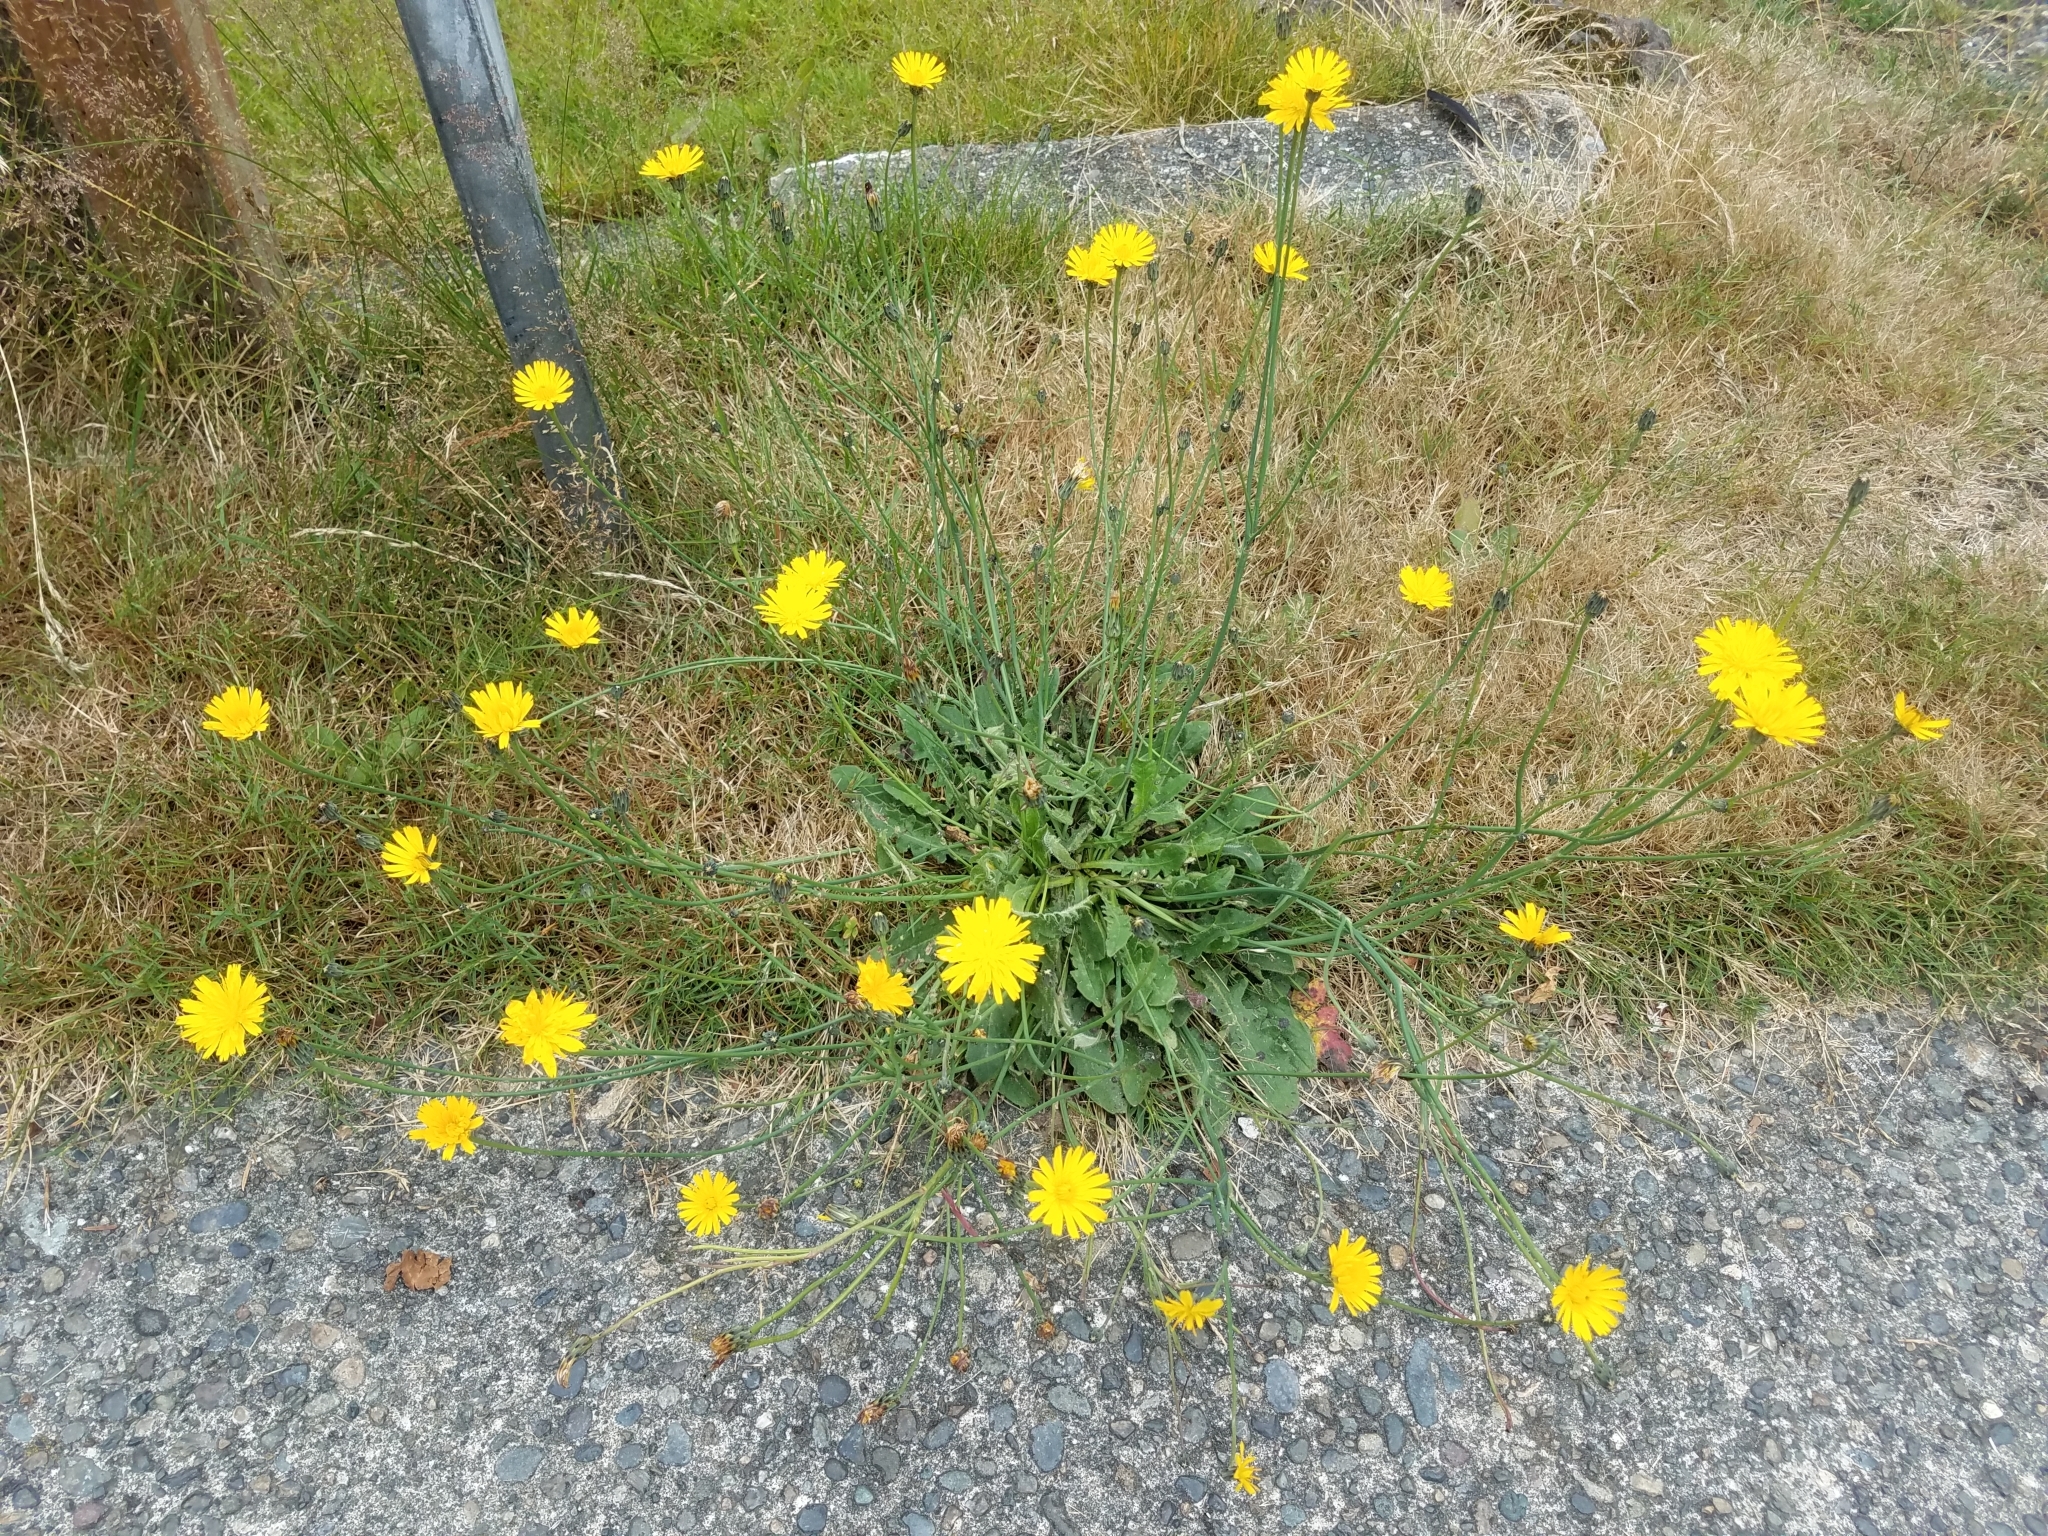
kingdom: Plantae
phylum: Tracheophyta
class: Magnoliopsida
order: Asterales
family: Asteraceae
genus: Hypochaeris
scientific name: Hypochaeris radicata
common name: Flatweed
